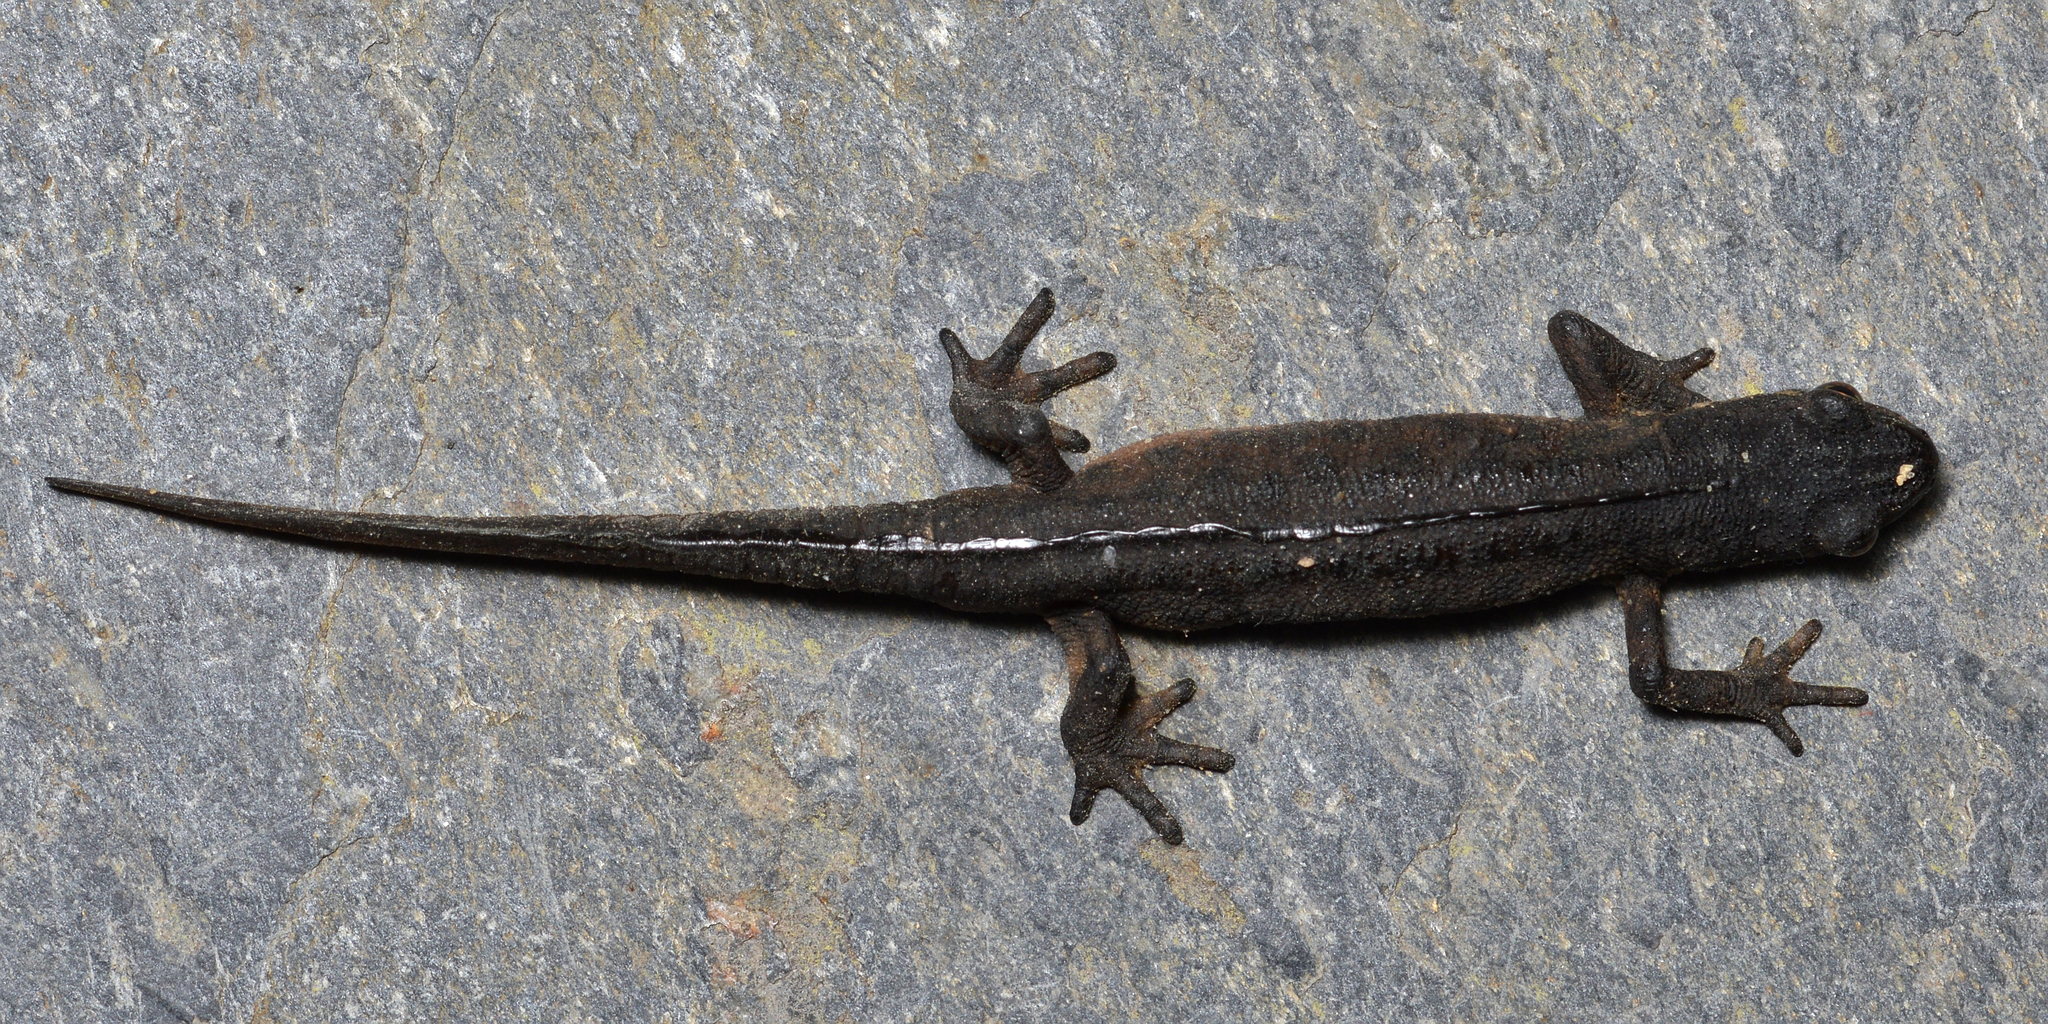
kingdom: Animalia
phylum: Chordata
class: Amphibia
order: Caudata
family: Salamandridae
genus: Lissotriton
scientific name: Lissotriton vulgaris
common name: Smooth newt
